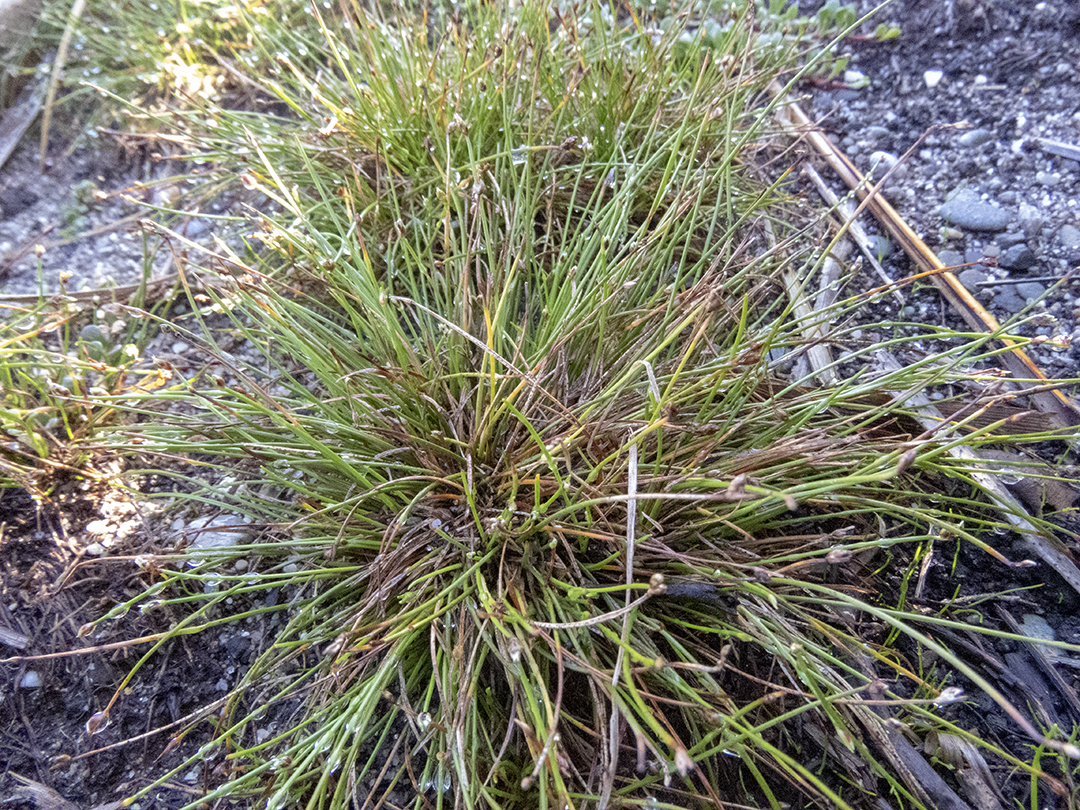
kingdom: Plantae
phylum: Tracheophyta
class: Liliopsida
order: Poales
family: Cyperaceae
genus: Isolepis
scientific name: Isolepis cernua
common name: Slender club-rush
